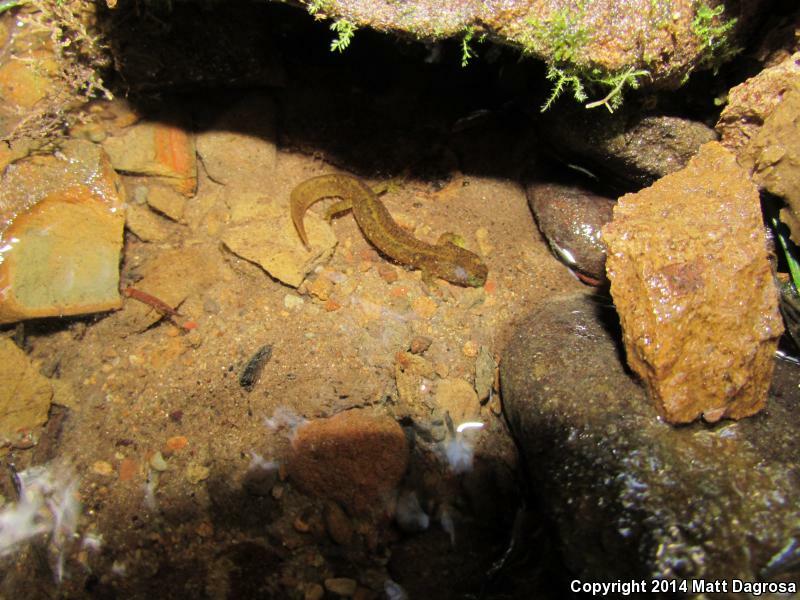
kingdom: Animalia
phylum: Chordata
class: Amphibia
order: Caudata
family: Rhyacotritonidae
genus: Rhyacotriton
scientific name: Rhyacotriton variegatus
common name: Southern torrent salamander
